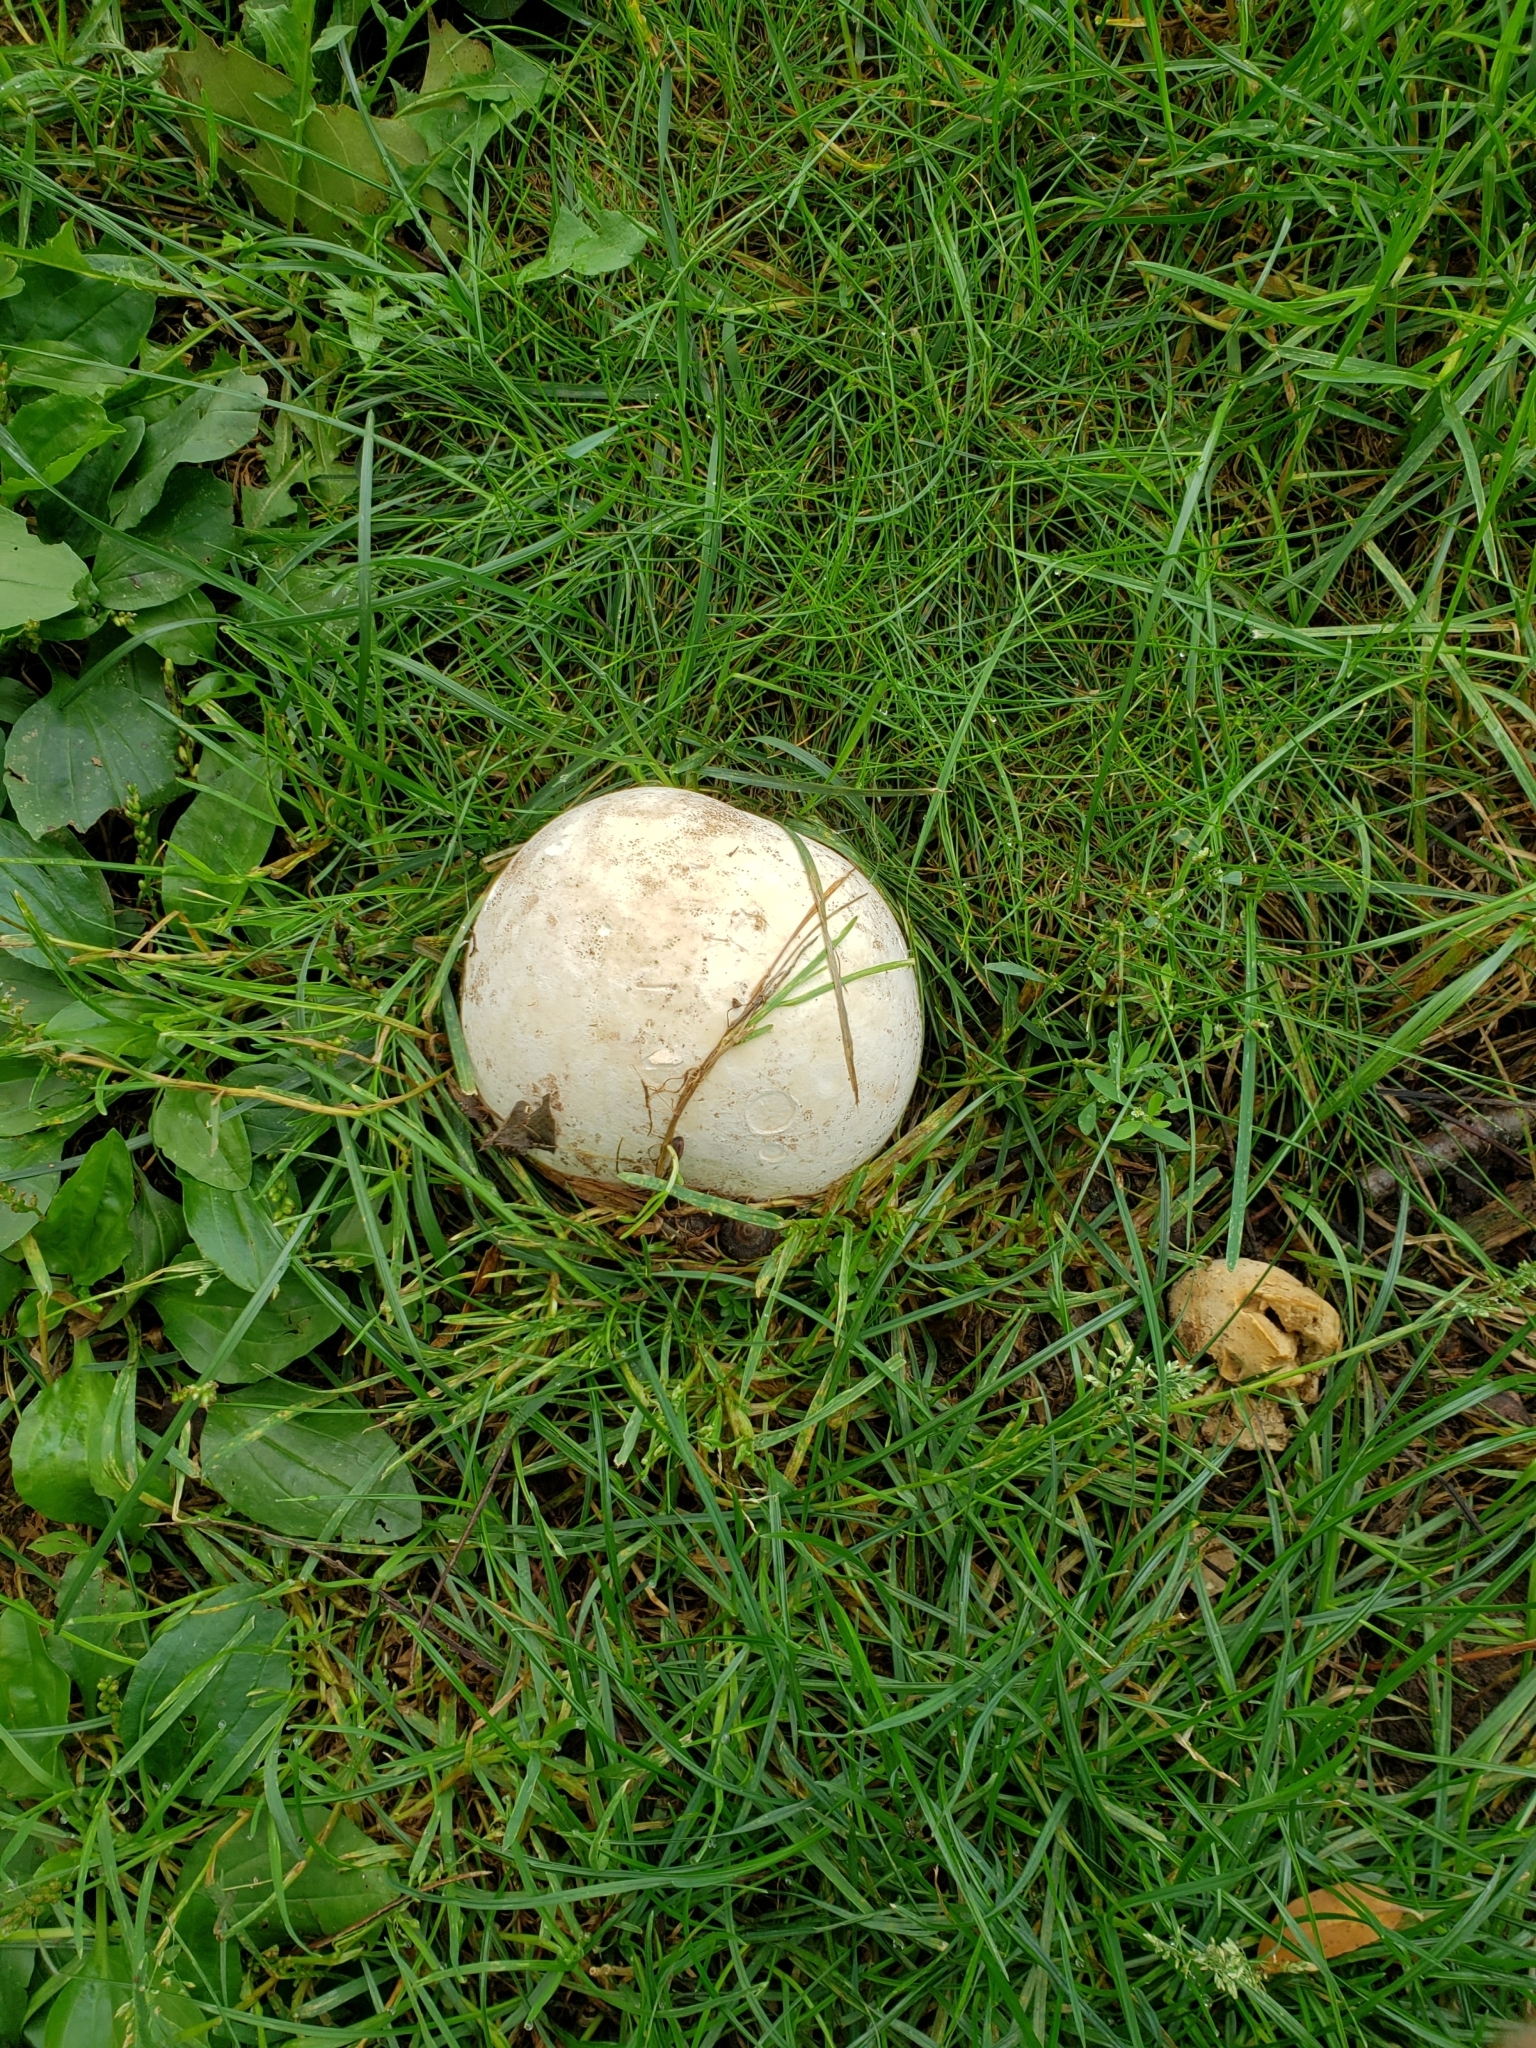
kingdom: Fungi
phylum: Basidiomycota
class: Agaricomycetes
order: Agaricales
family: Lycoperdaceae
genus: Calvatia
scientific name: Calvatia gigantea
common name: Giant puffball
